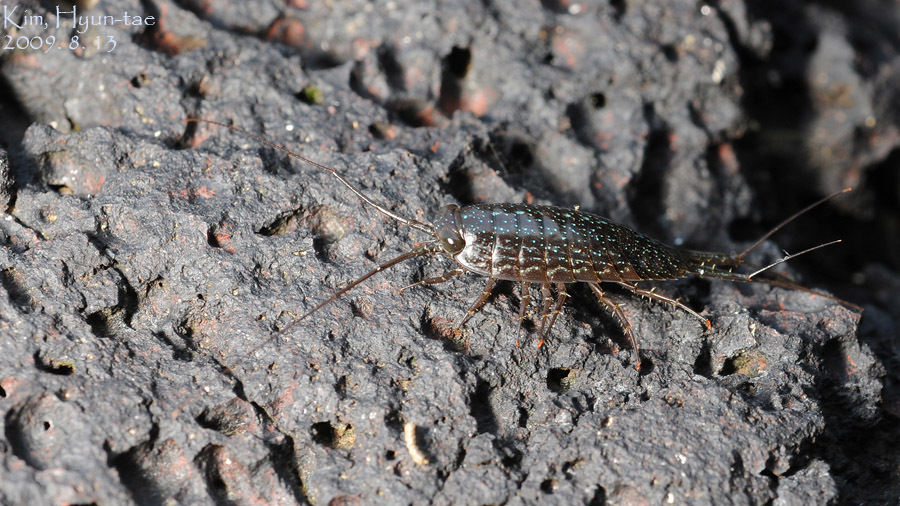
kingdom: Animalia
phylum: Arthropoda
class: Malacostraca
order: Isopoda
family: Ligiidae
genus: Ligia
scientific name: Ligia exotica
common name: Wharf roach
